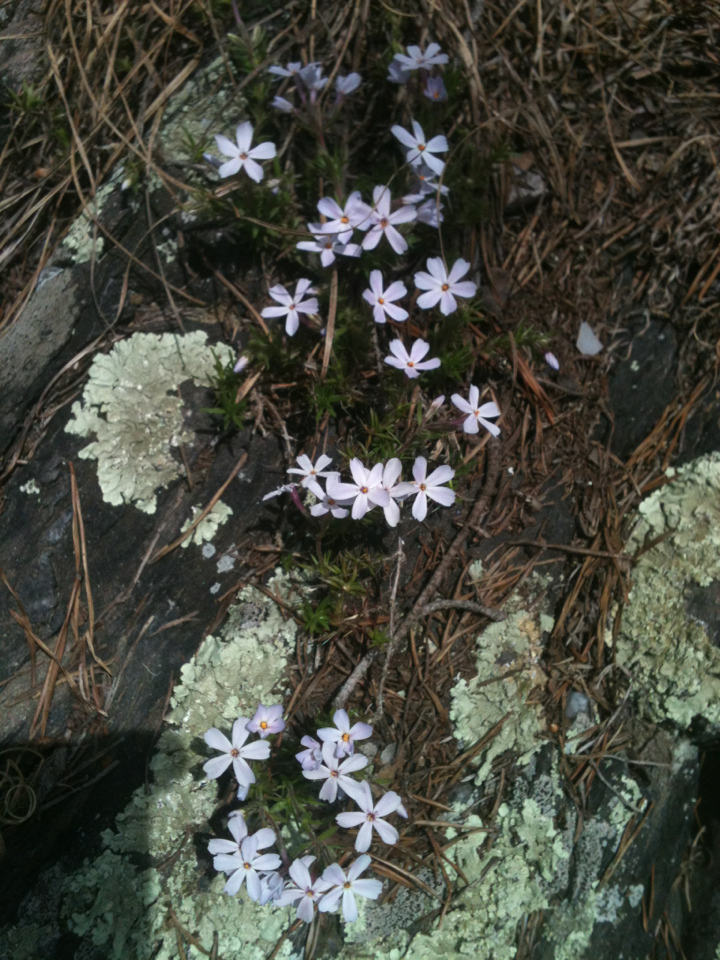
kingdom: Plantae
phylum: Tracheophyta
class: Magnoliopsida
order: Ericales
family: Polemoniaceae
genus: Phlox
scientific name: Phlox subulata
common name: Moss phlox
